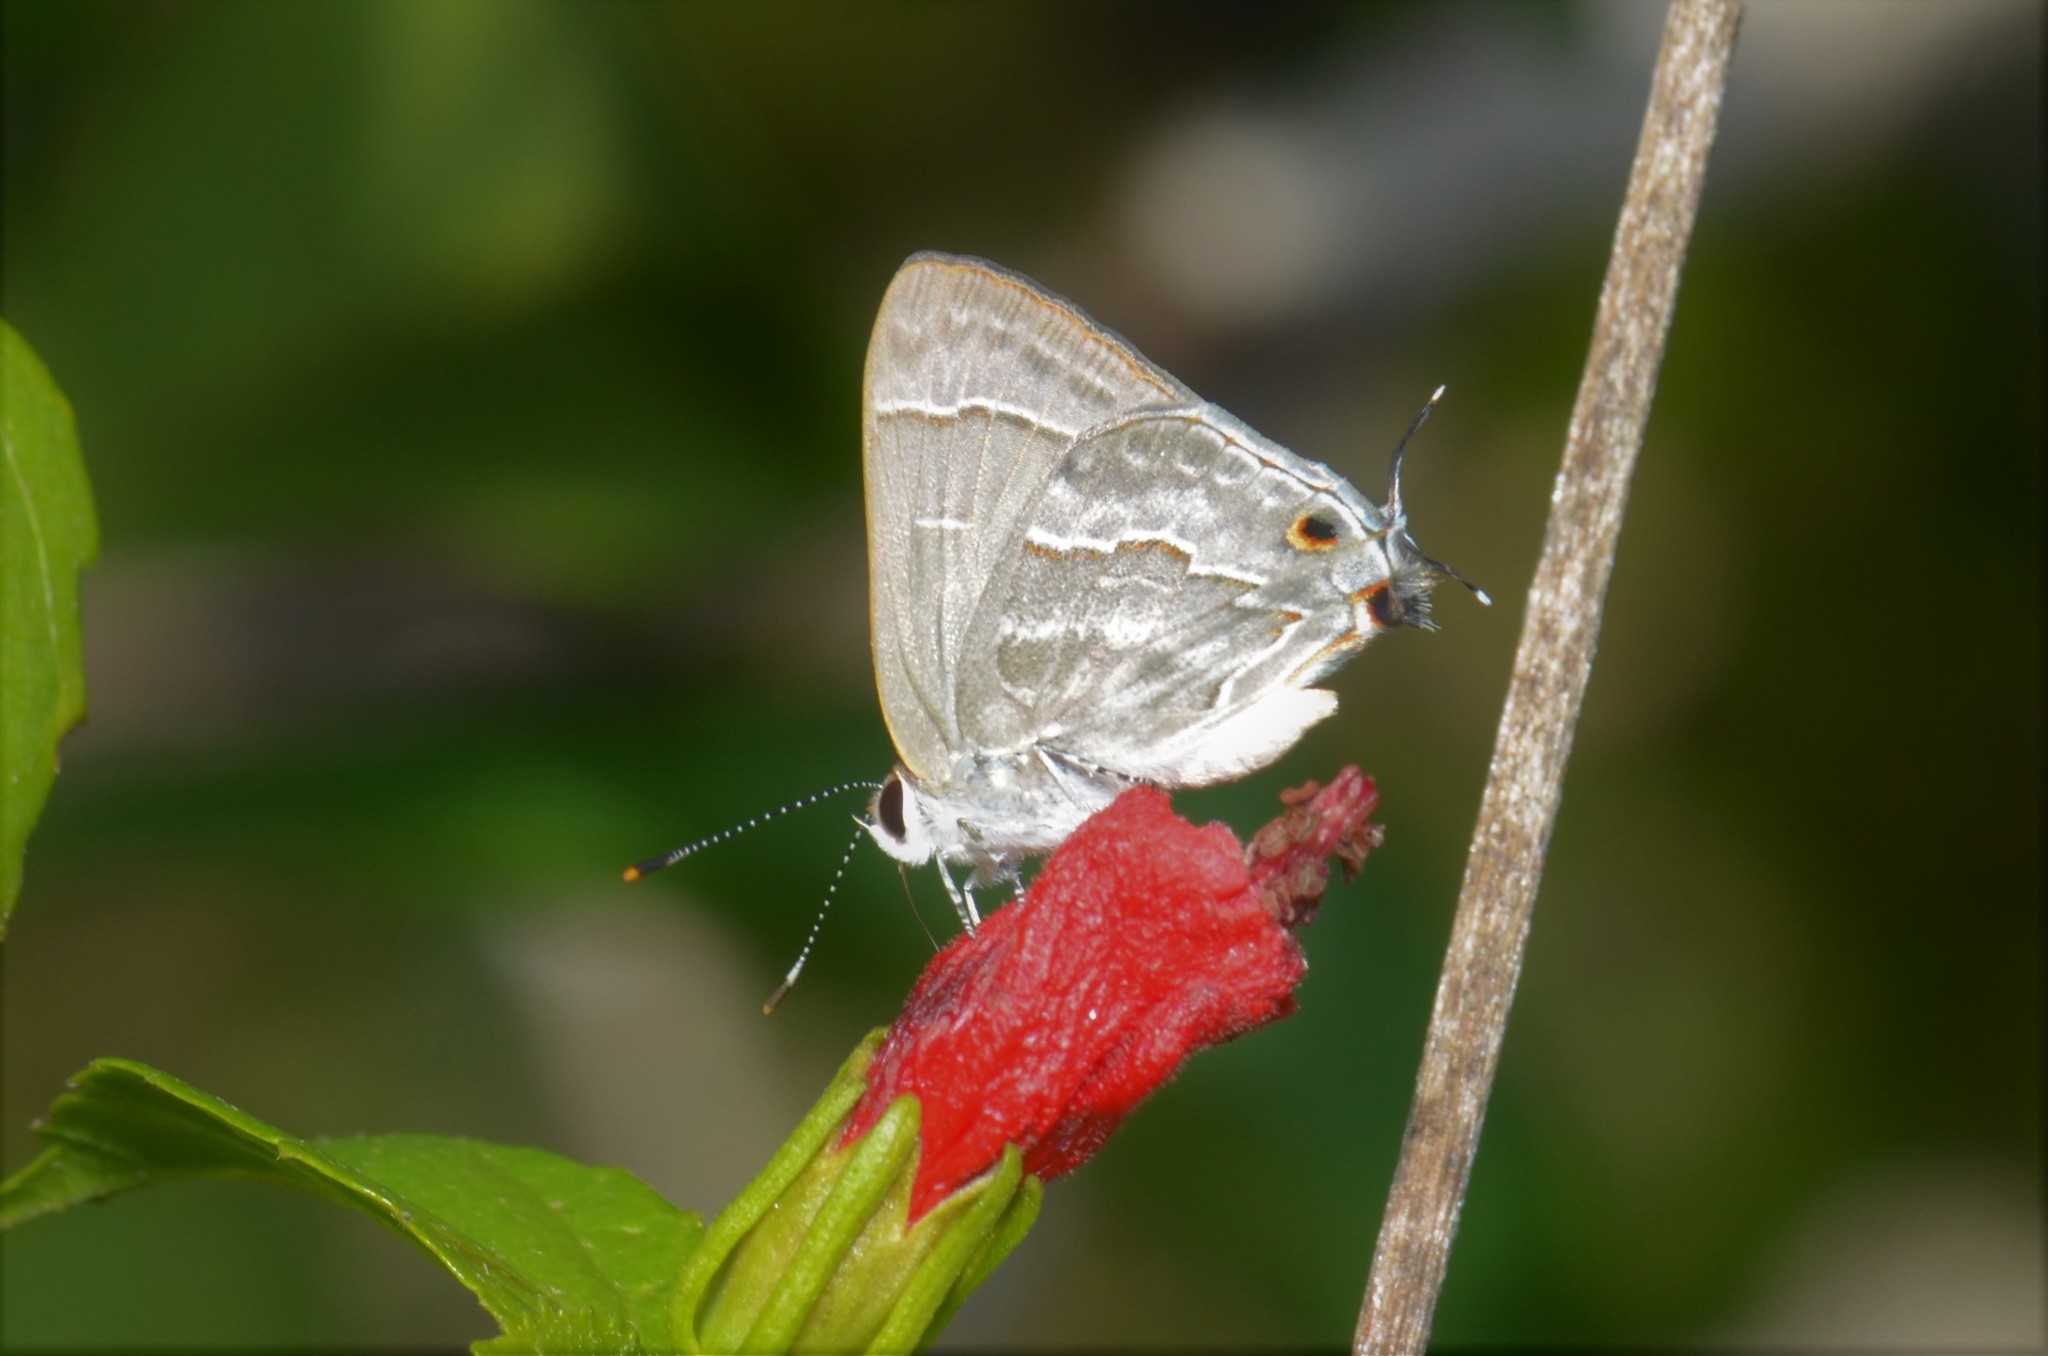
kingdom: Animalia
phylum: Arthropoda
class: Insecta
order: Lepidoptera
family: Lycaenidae
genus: Thecla
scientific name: Thecla yojoa
